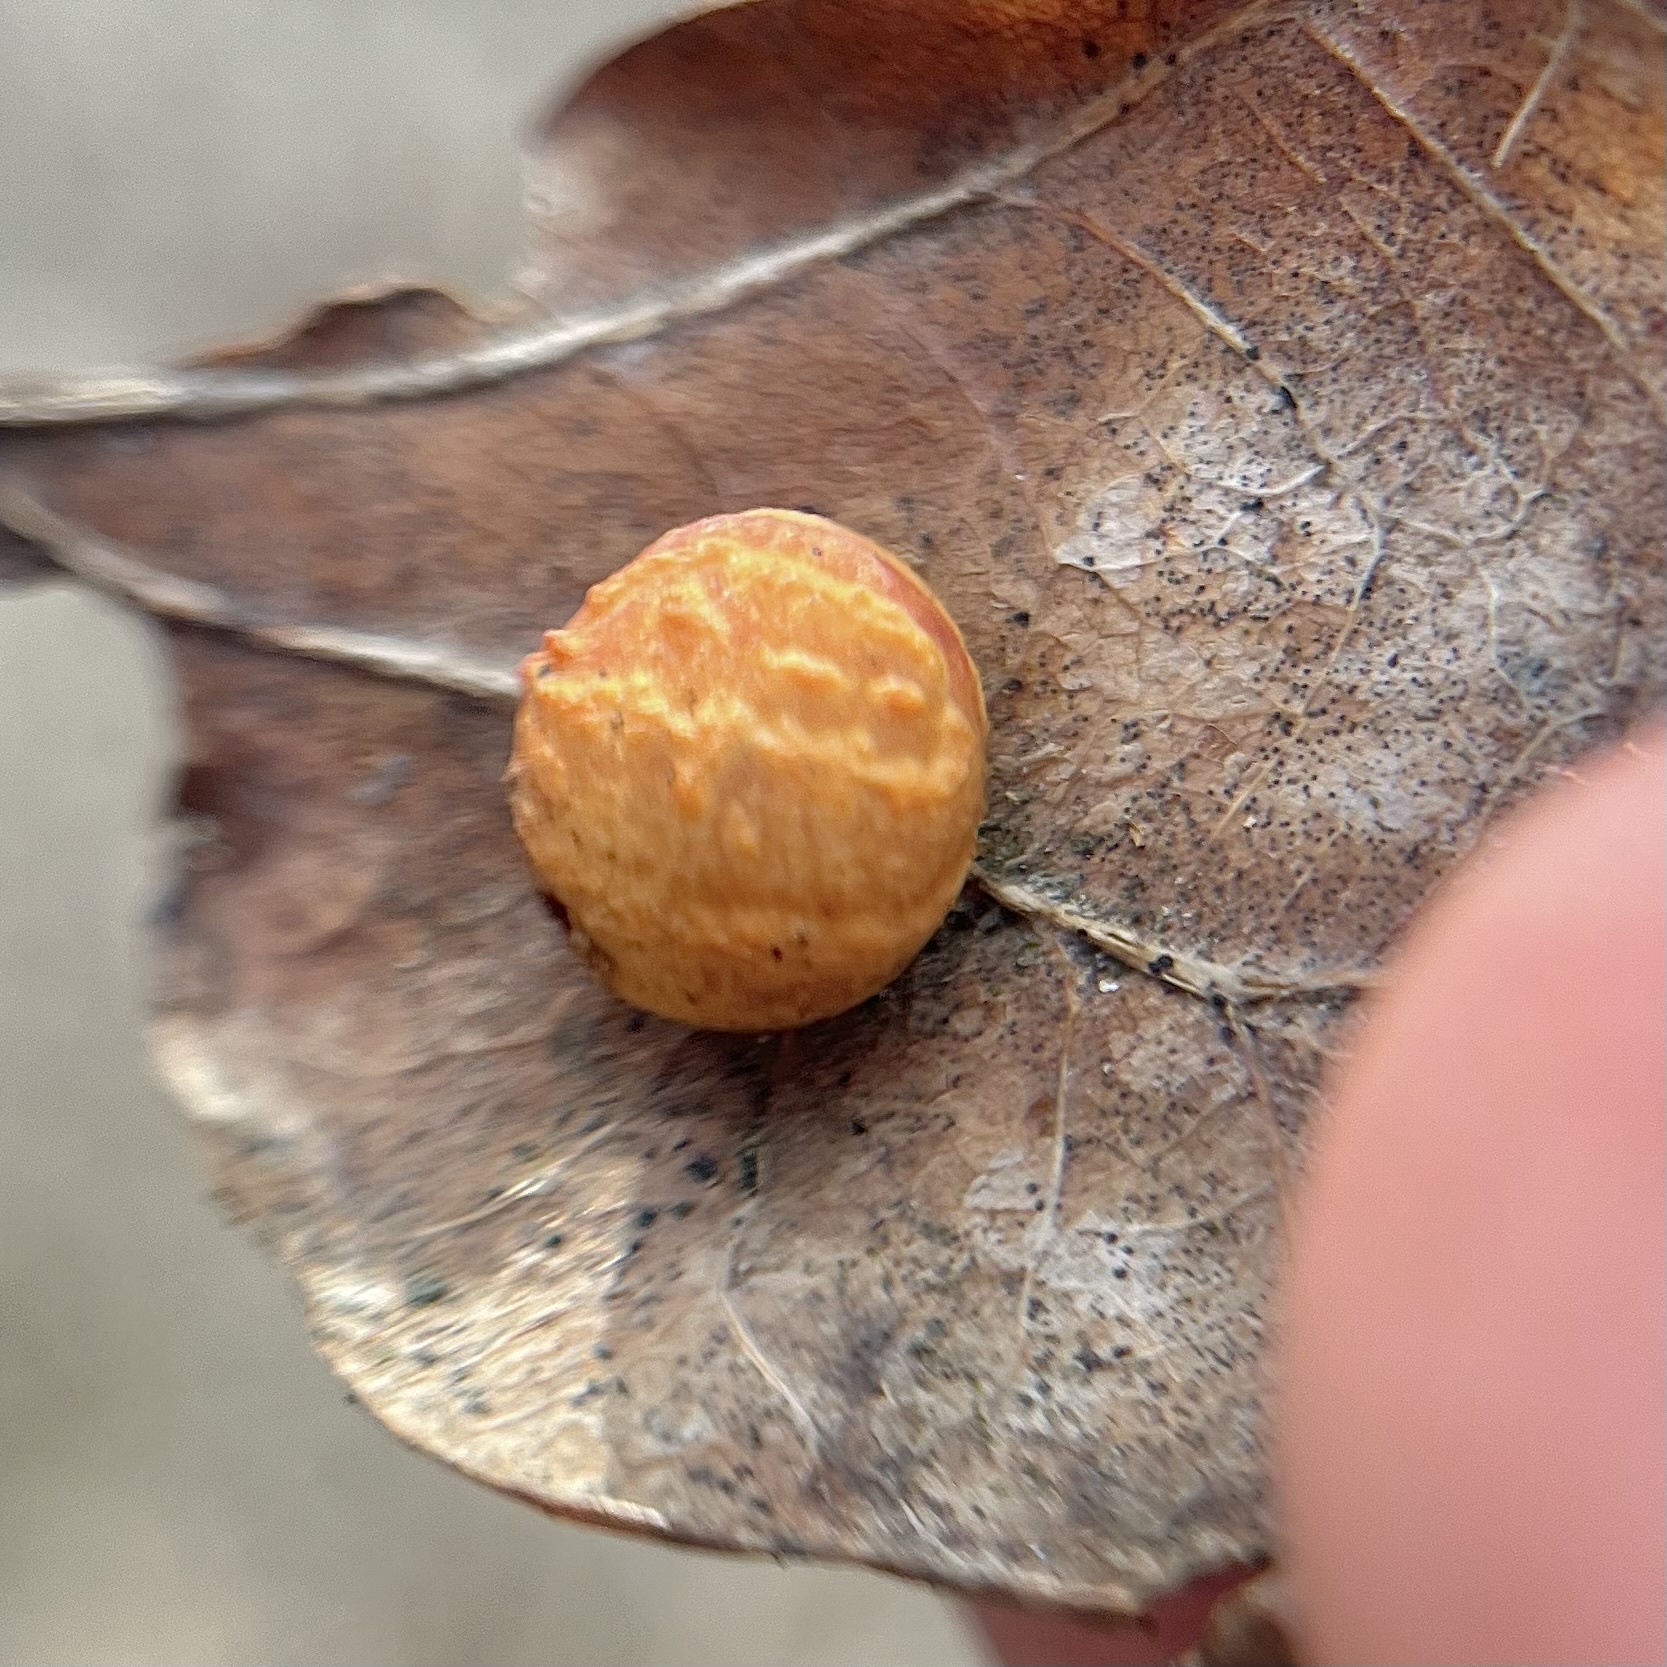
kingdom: Animalia
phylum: Arthropoda
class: Insecta
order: Hymenoptera
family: Cynipidae
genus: Cynips
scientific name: Cynips longiventris
